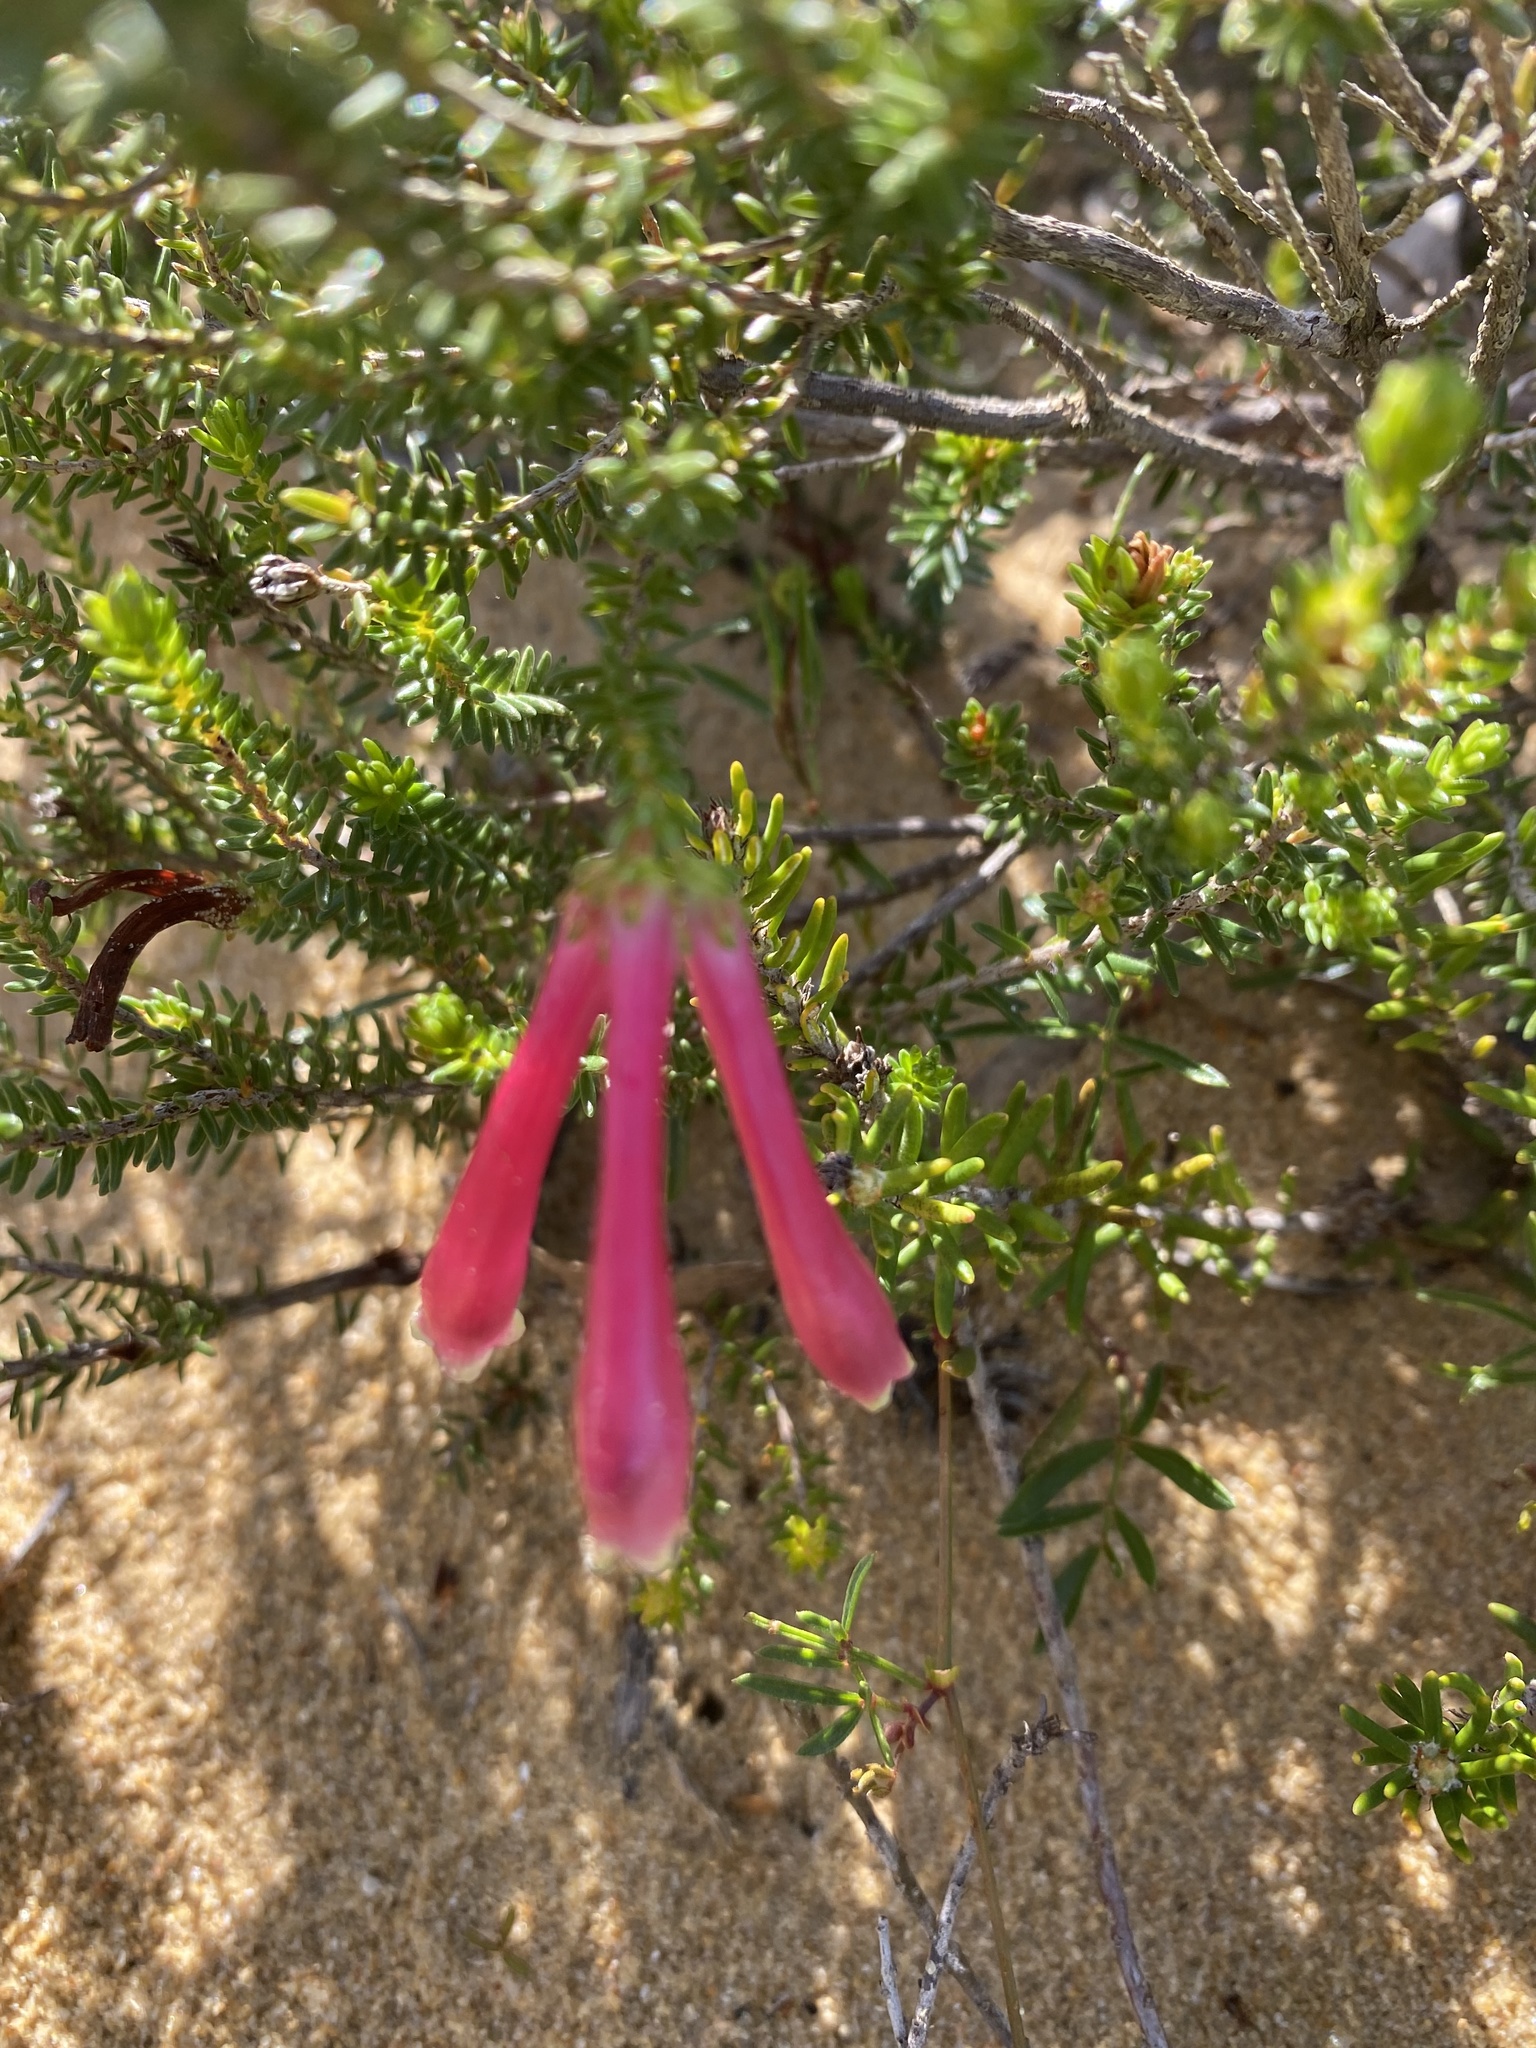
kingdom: Plantae
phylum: Tracheophyta
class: Magnoliopsida
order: Ericales
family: Ericaceae
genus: Erica
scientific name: Erica versicolor
